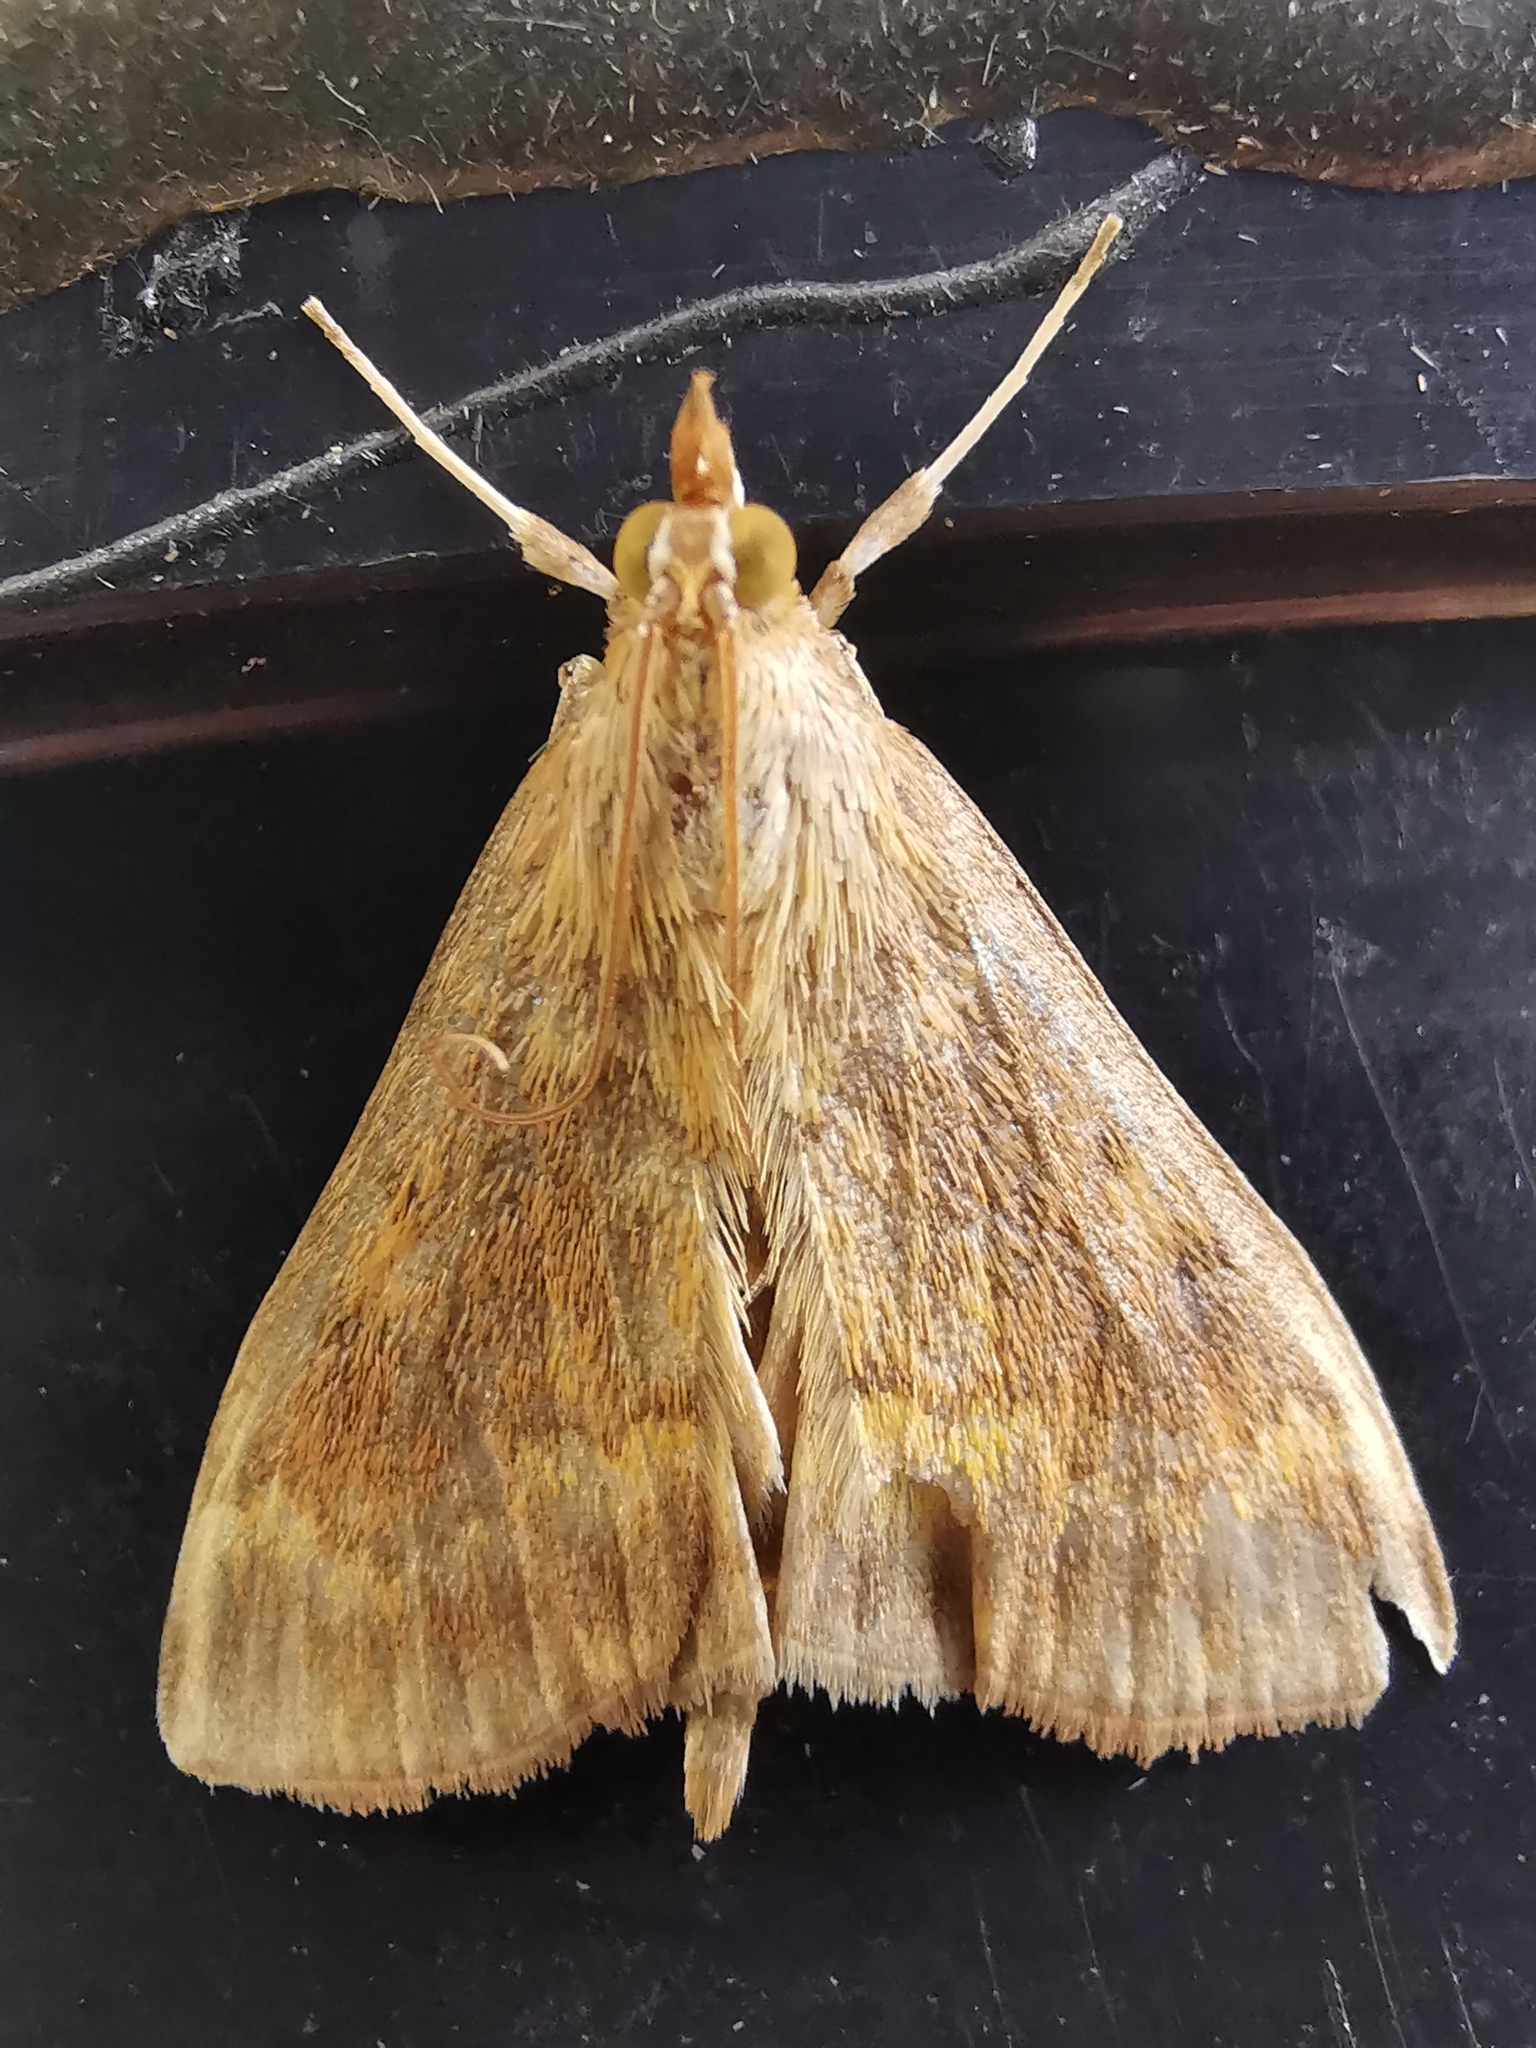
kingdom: Animalia
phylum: Arthropoda
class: Insecta
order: Lepidoptera
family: Crambidae
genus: Ostrinia
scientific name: Ostrinia nubilalis
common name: European corn borer
